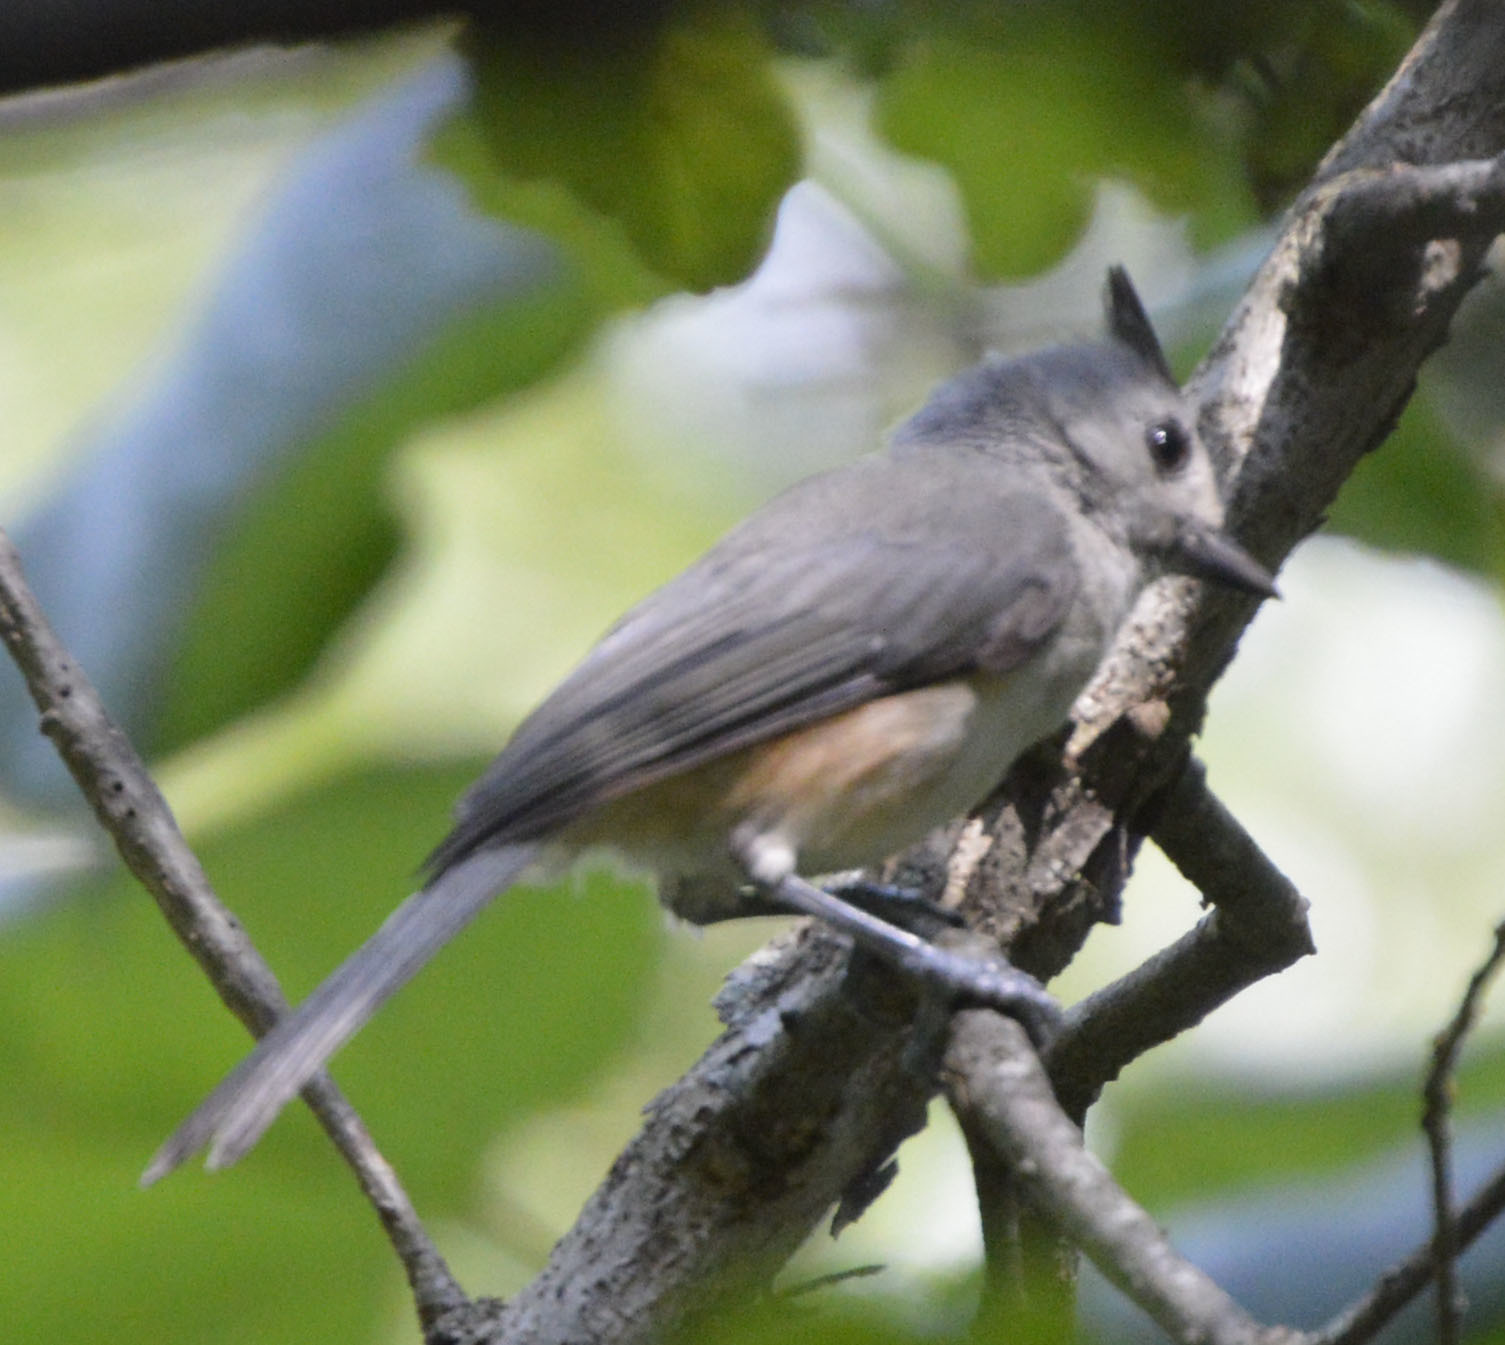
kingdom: Animalia
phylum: Chordata
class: Aves
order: Passeriformes
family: Paridae
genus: Baeolophus
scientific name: Baeolophus atricristatus
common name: Black-crested titmouse
